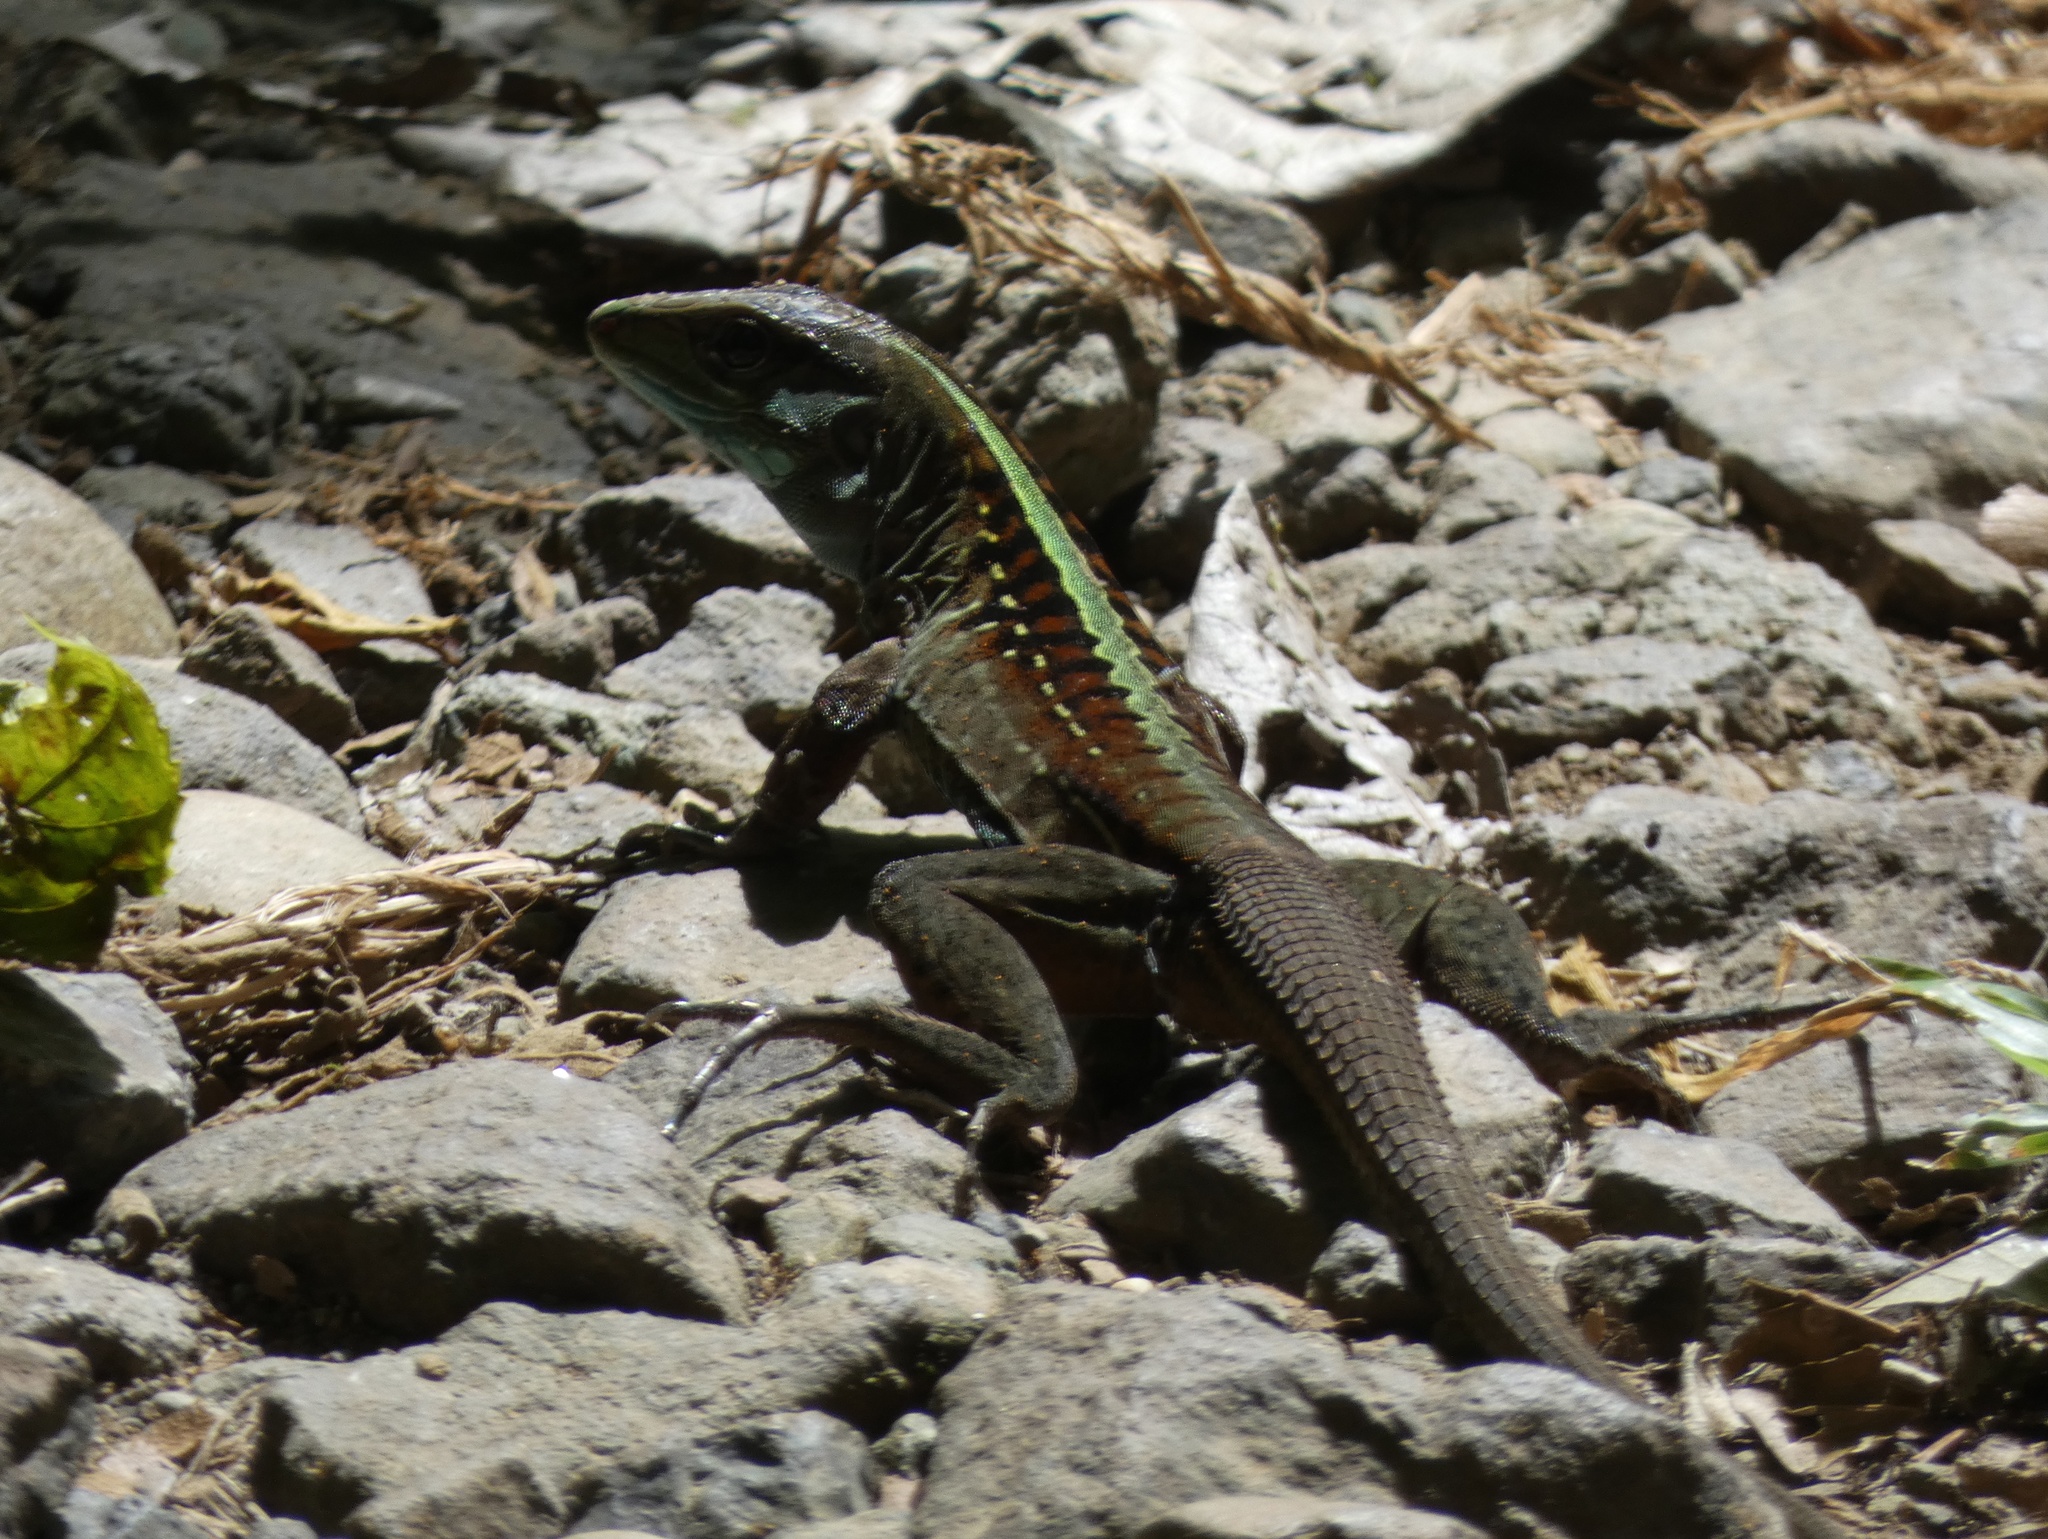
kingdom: Animalia
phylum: Chordata
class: Squamata
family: Teiidae
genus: Holcosus
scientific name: Holcosus festivus
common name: Middle american ameiva
